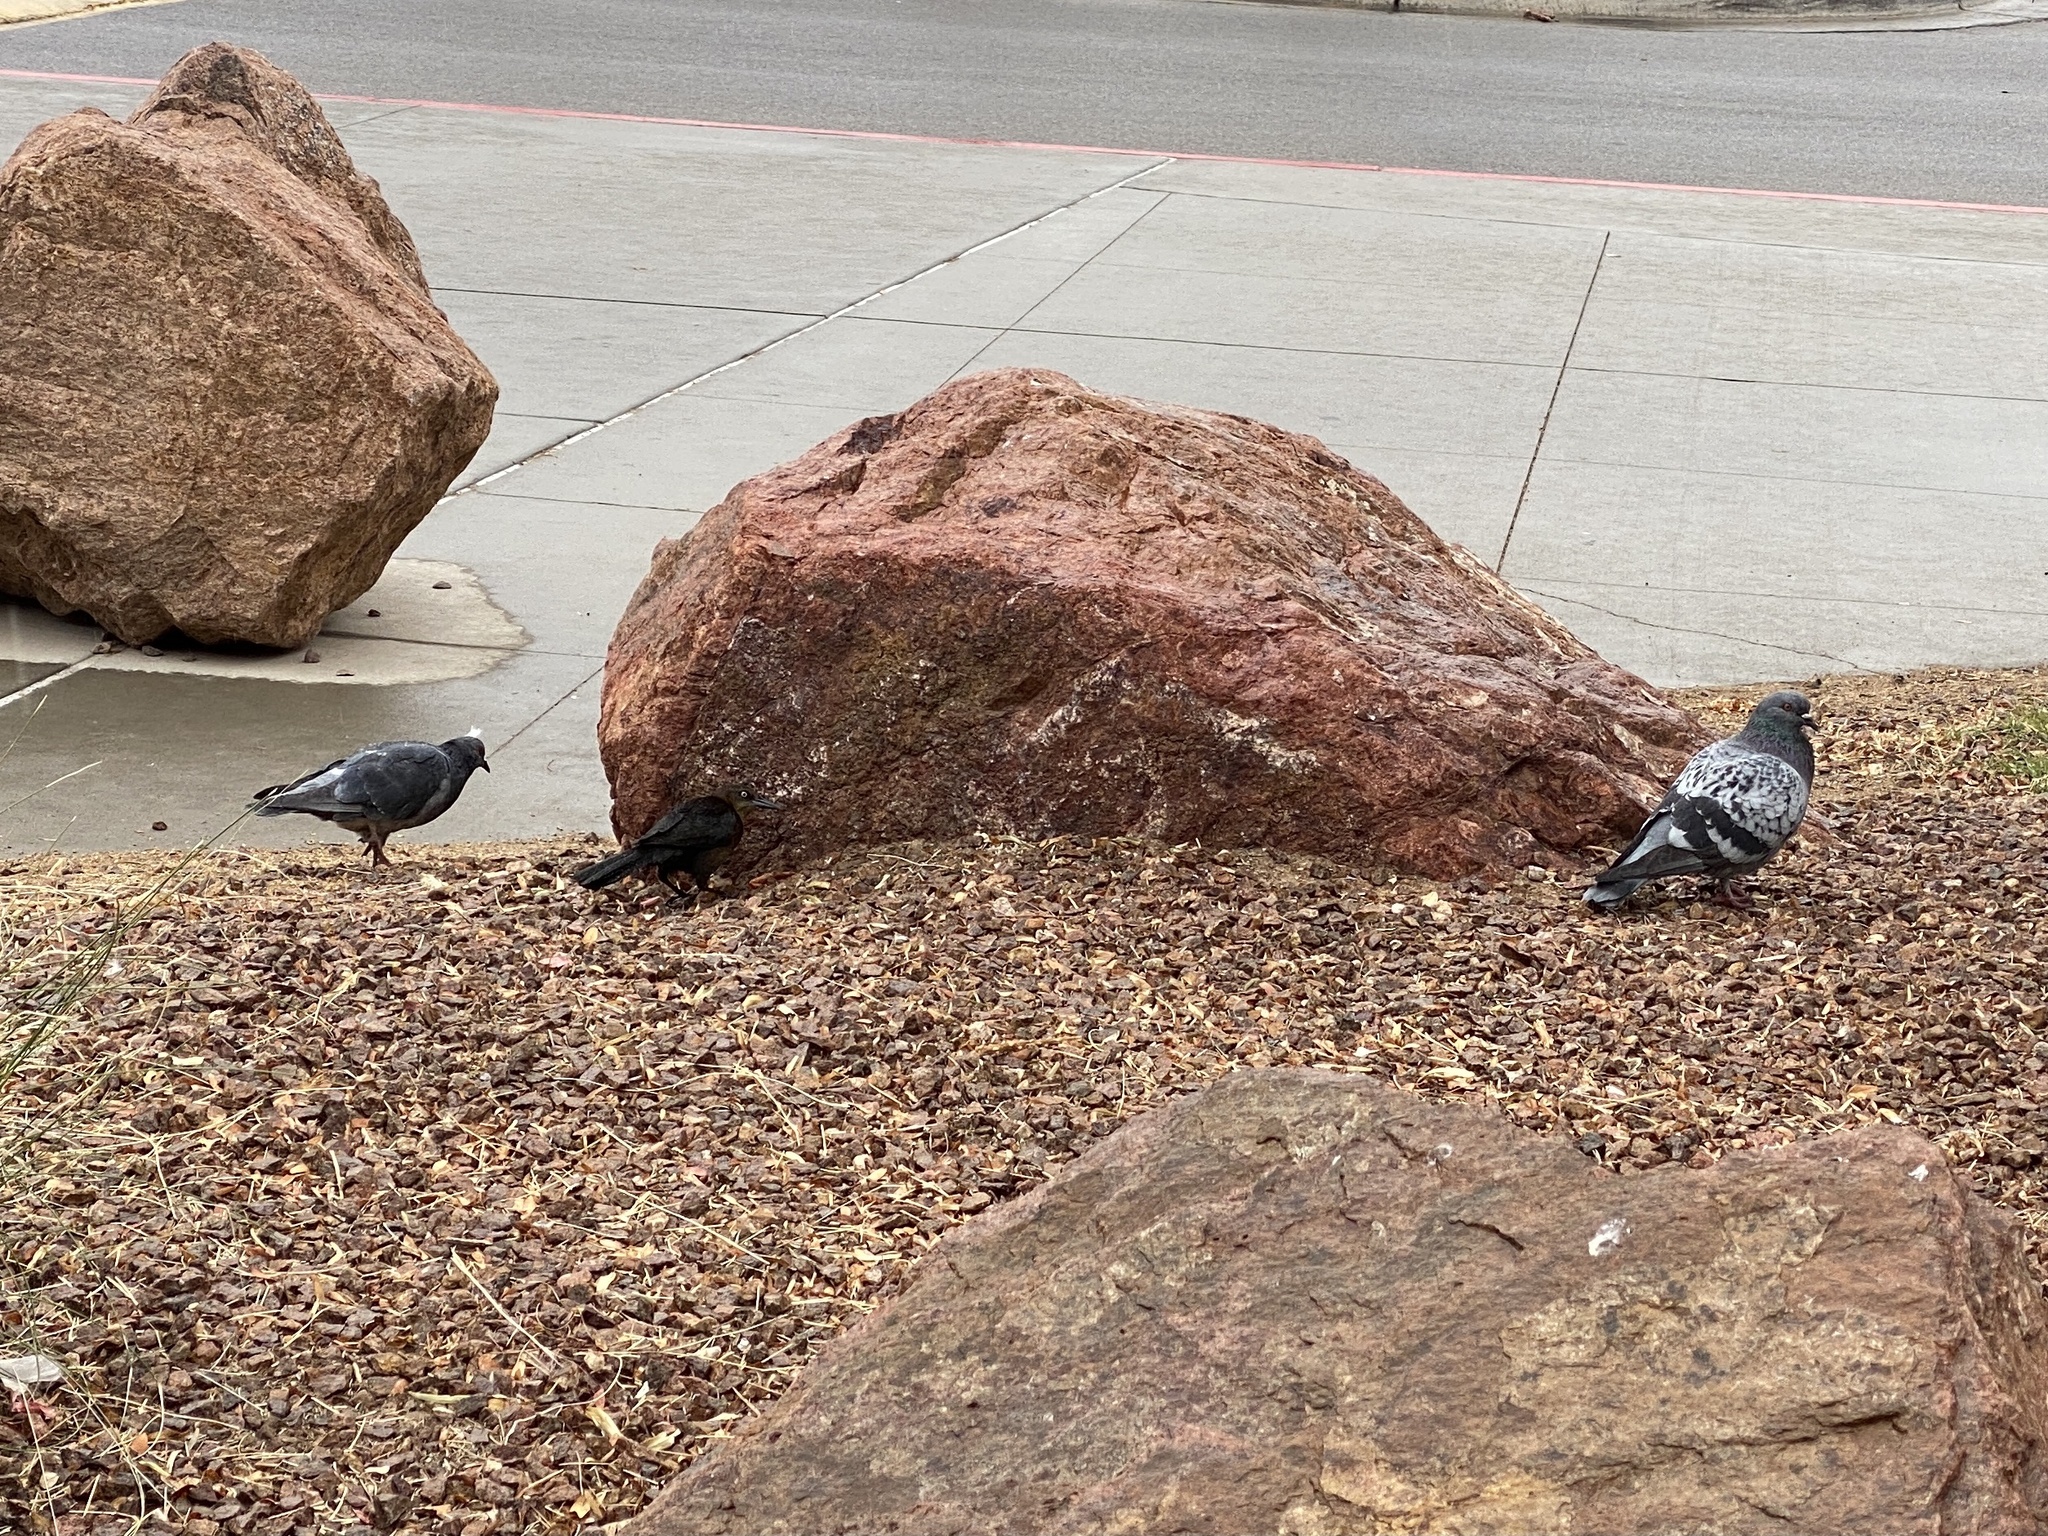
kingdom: Animalia
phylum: Chordata
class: Aves
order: Columbiformes
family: Columbidae
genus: Columba
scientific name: Columba livia
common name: Rock pigeon
